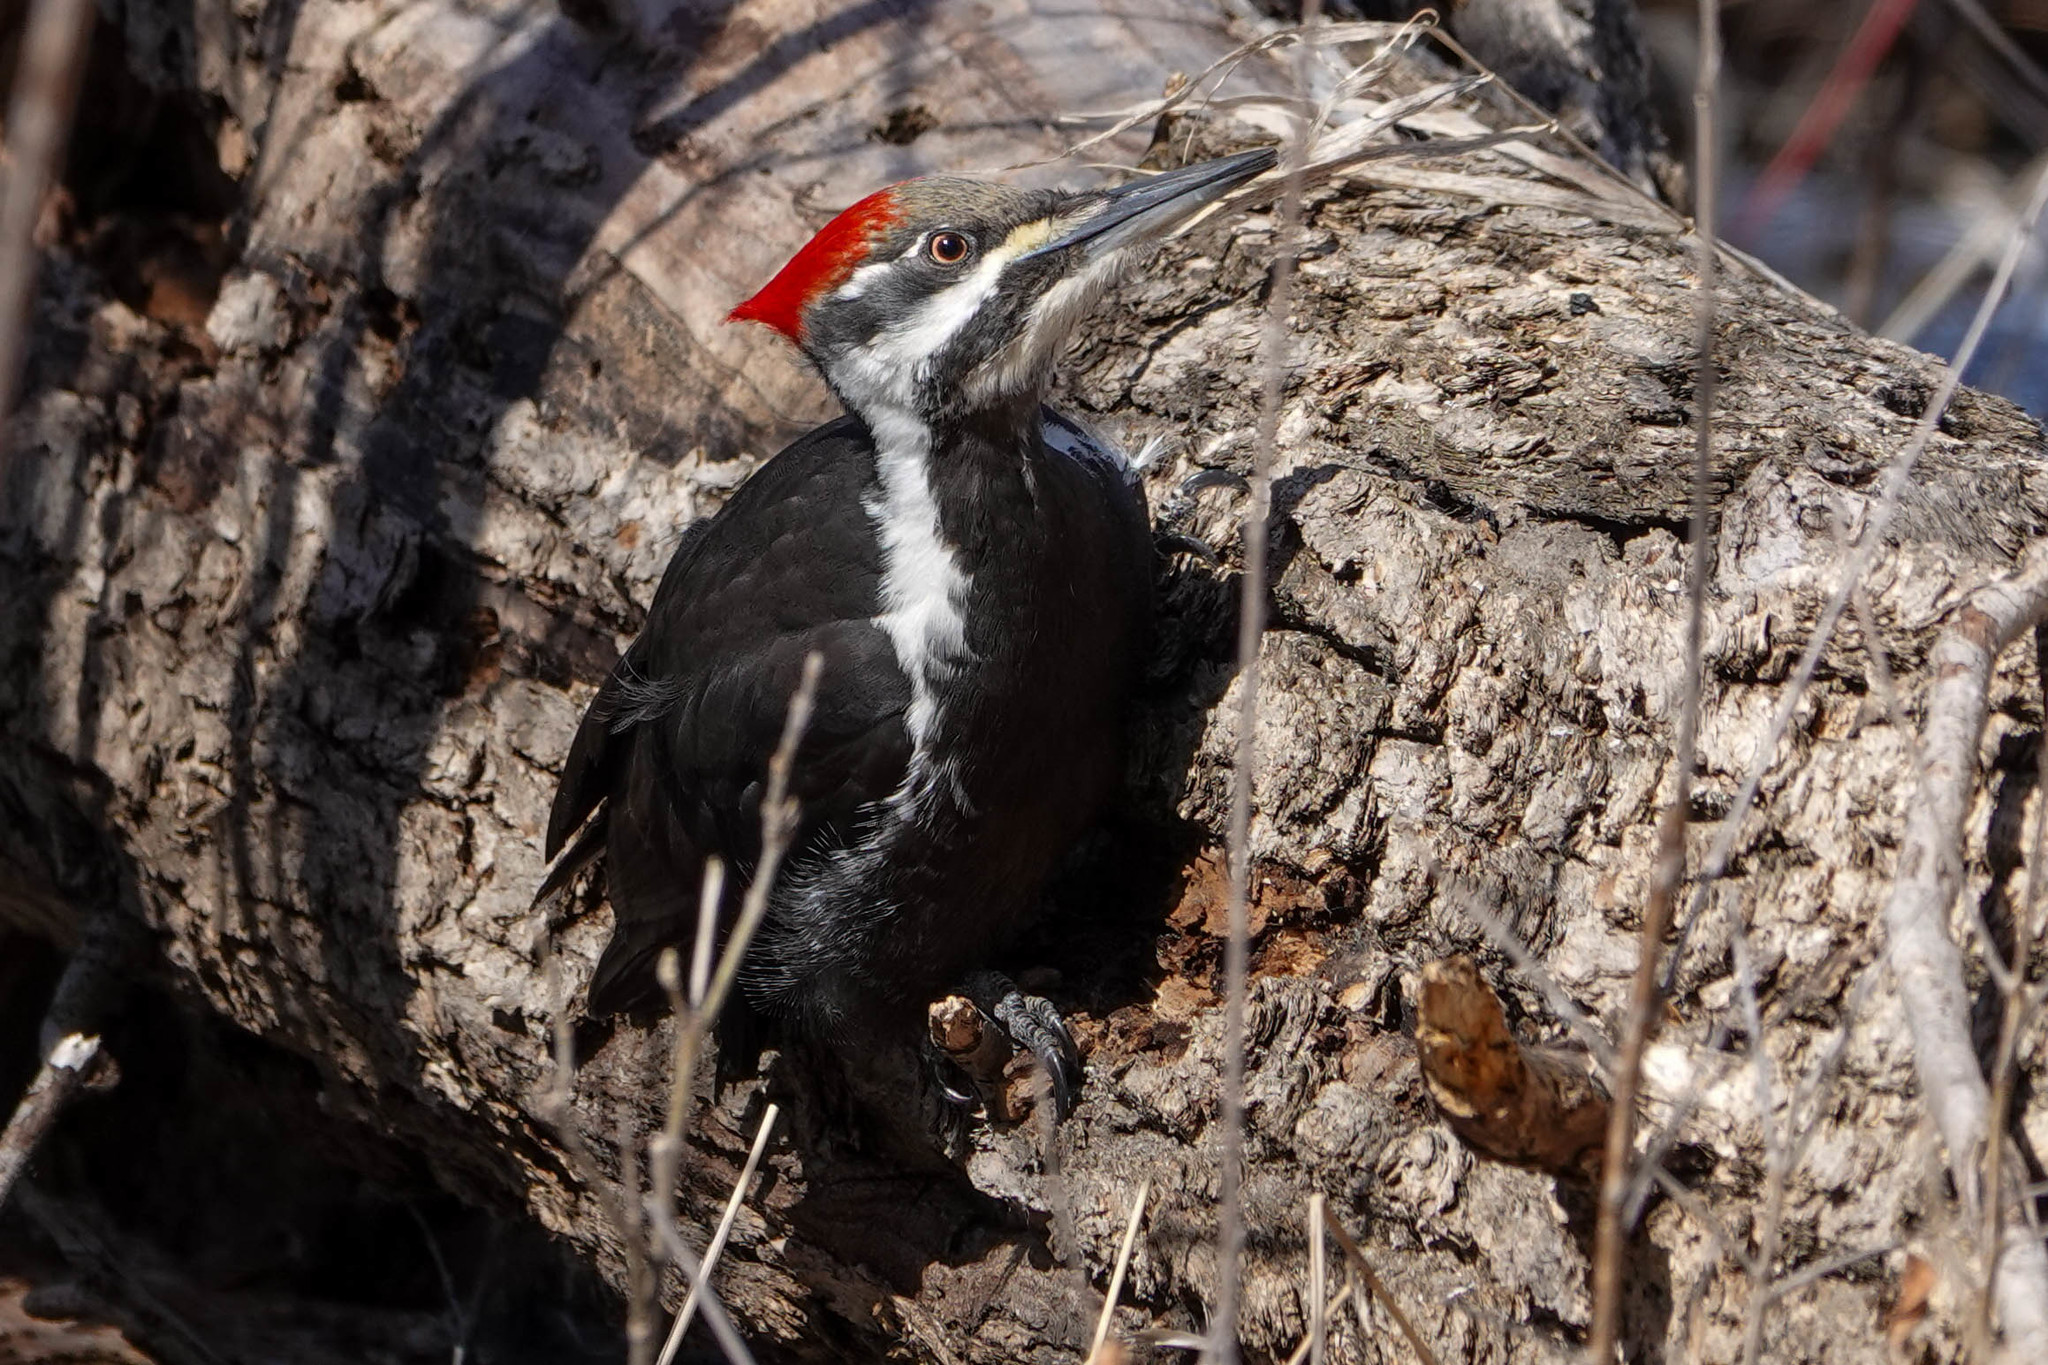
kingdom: Animalia
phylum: Chordata
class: Aves
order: Piciformes
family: Picidae
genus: Dryocopus
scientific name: Dryocopus pileatus
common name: Pileated woodpecker
